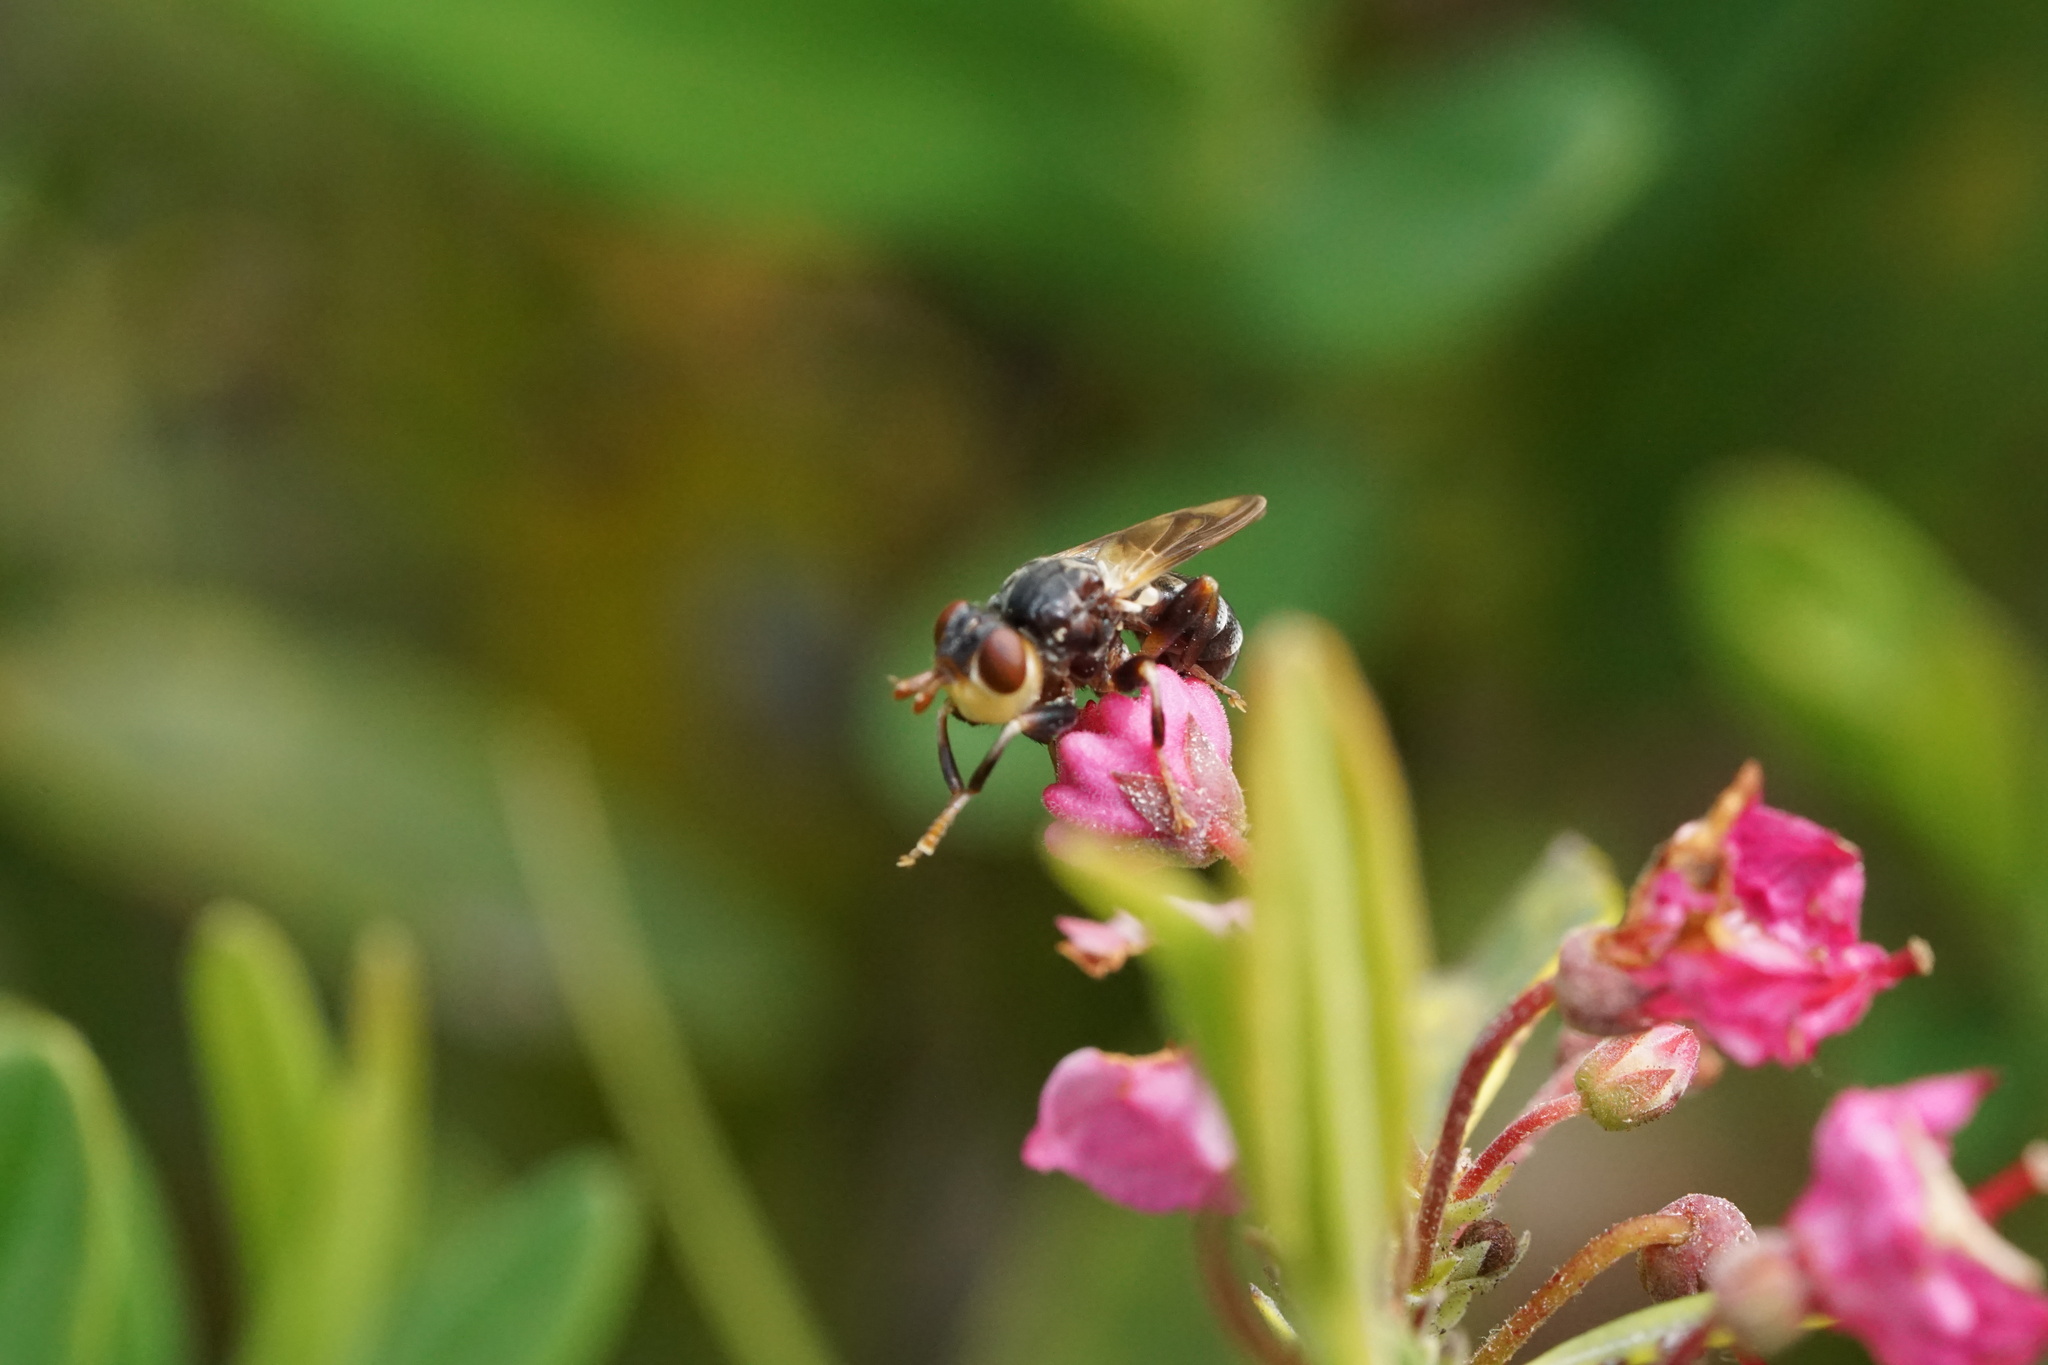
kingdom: Animalia
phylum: Arthropoda
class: Insecta
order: Diptera
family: Conopidae
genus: Myopa
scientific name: Myopa virginica
